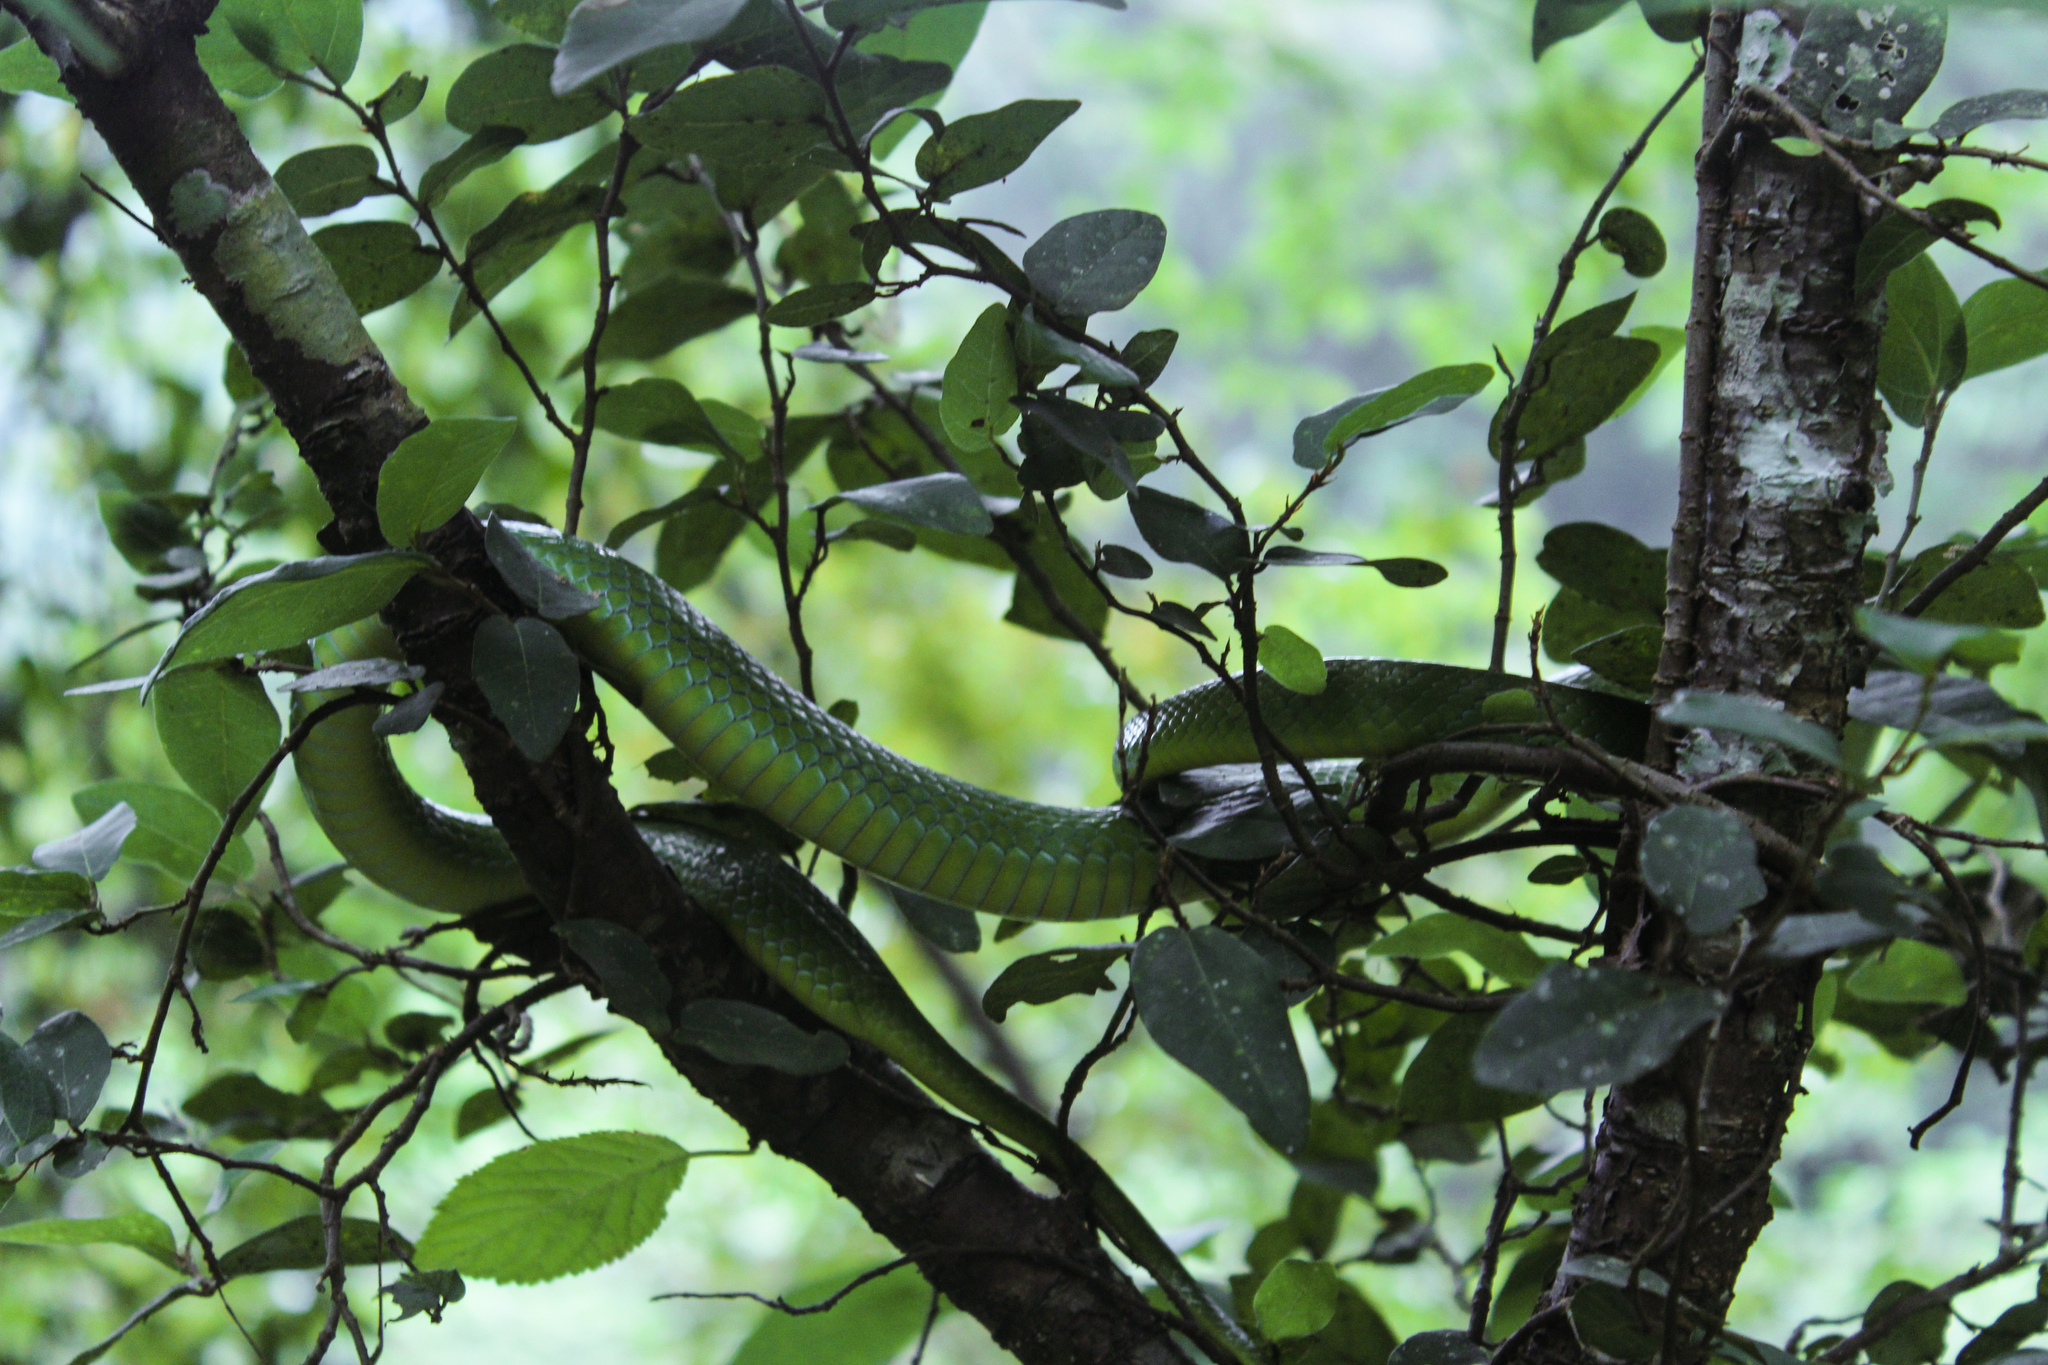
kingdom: Animalia
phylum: Chordata
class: Squamata
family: Colubridae
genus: Ptyas
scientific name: Ptyas major
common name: Chinese green snake
